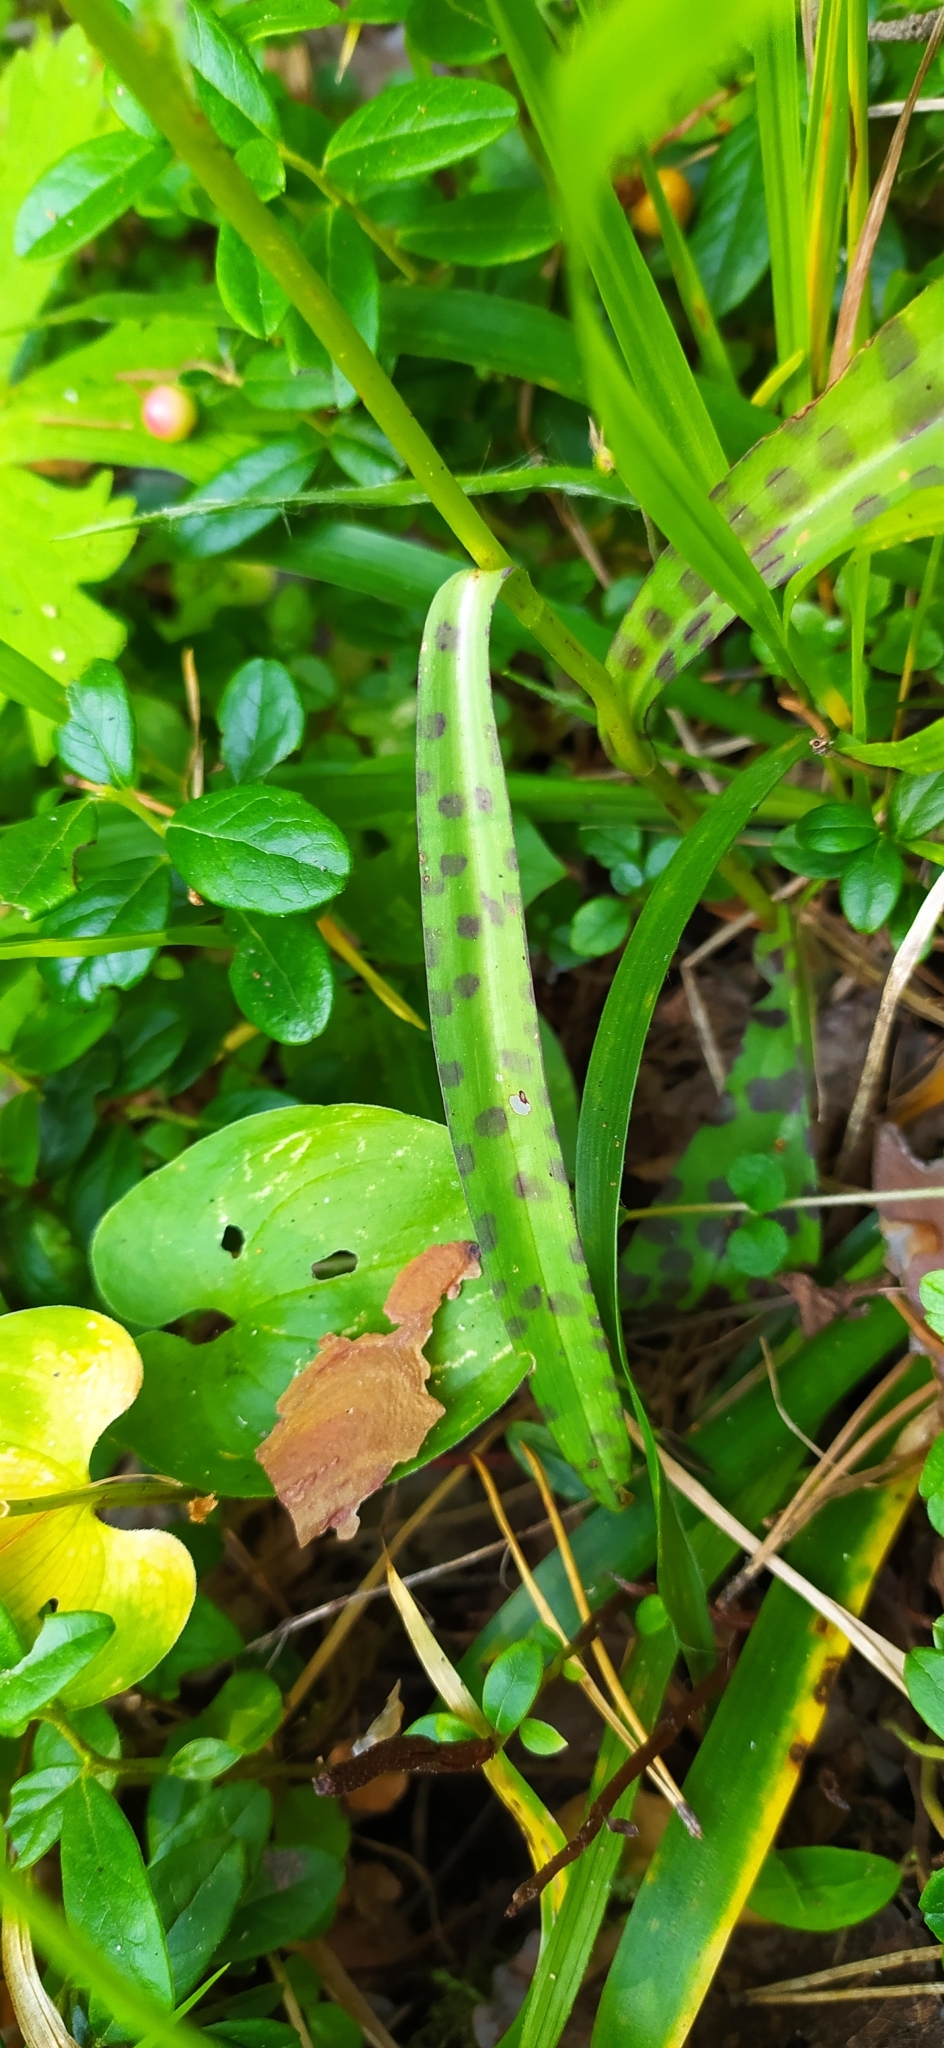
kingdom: Plantae
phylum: Tracheophyta
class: Liliopsida
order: Asparagales
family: Orchidaceae
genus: Dactylorhiza
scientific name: Dactylorhiza maculata
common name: Heath spotted-orchid
